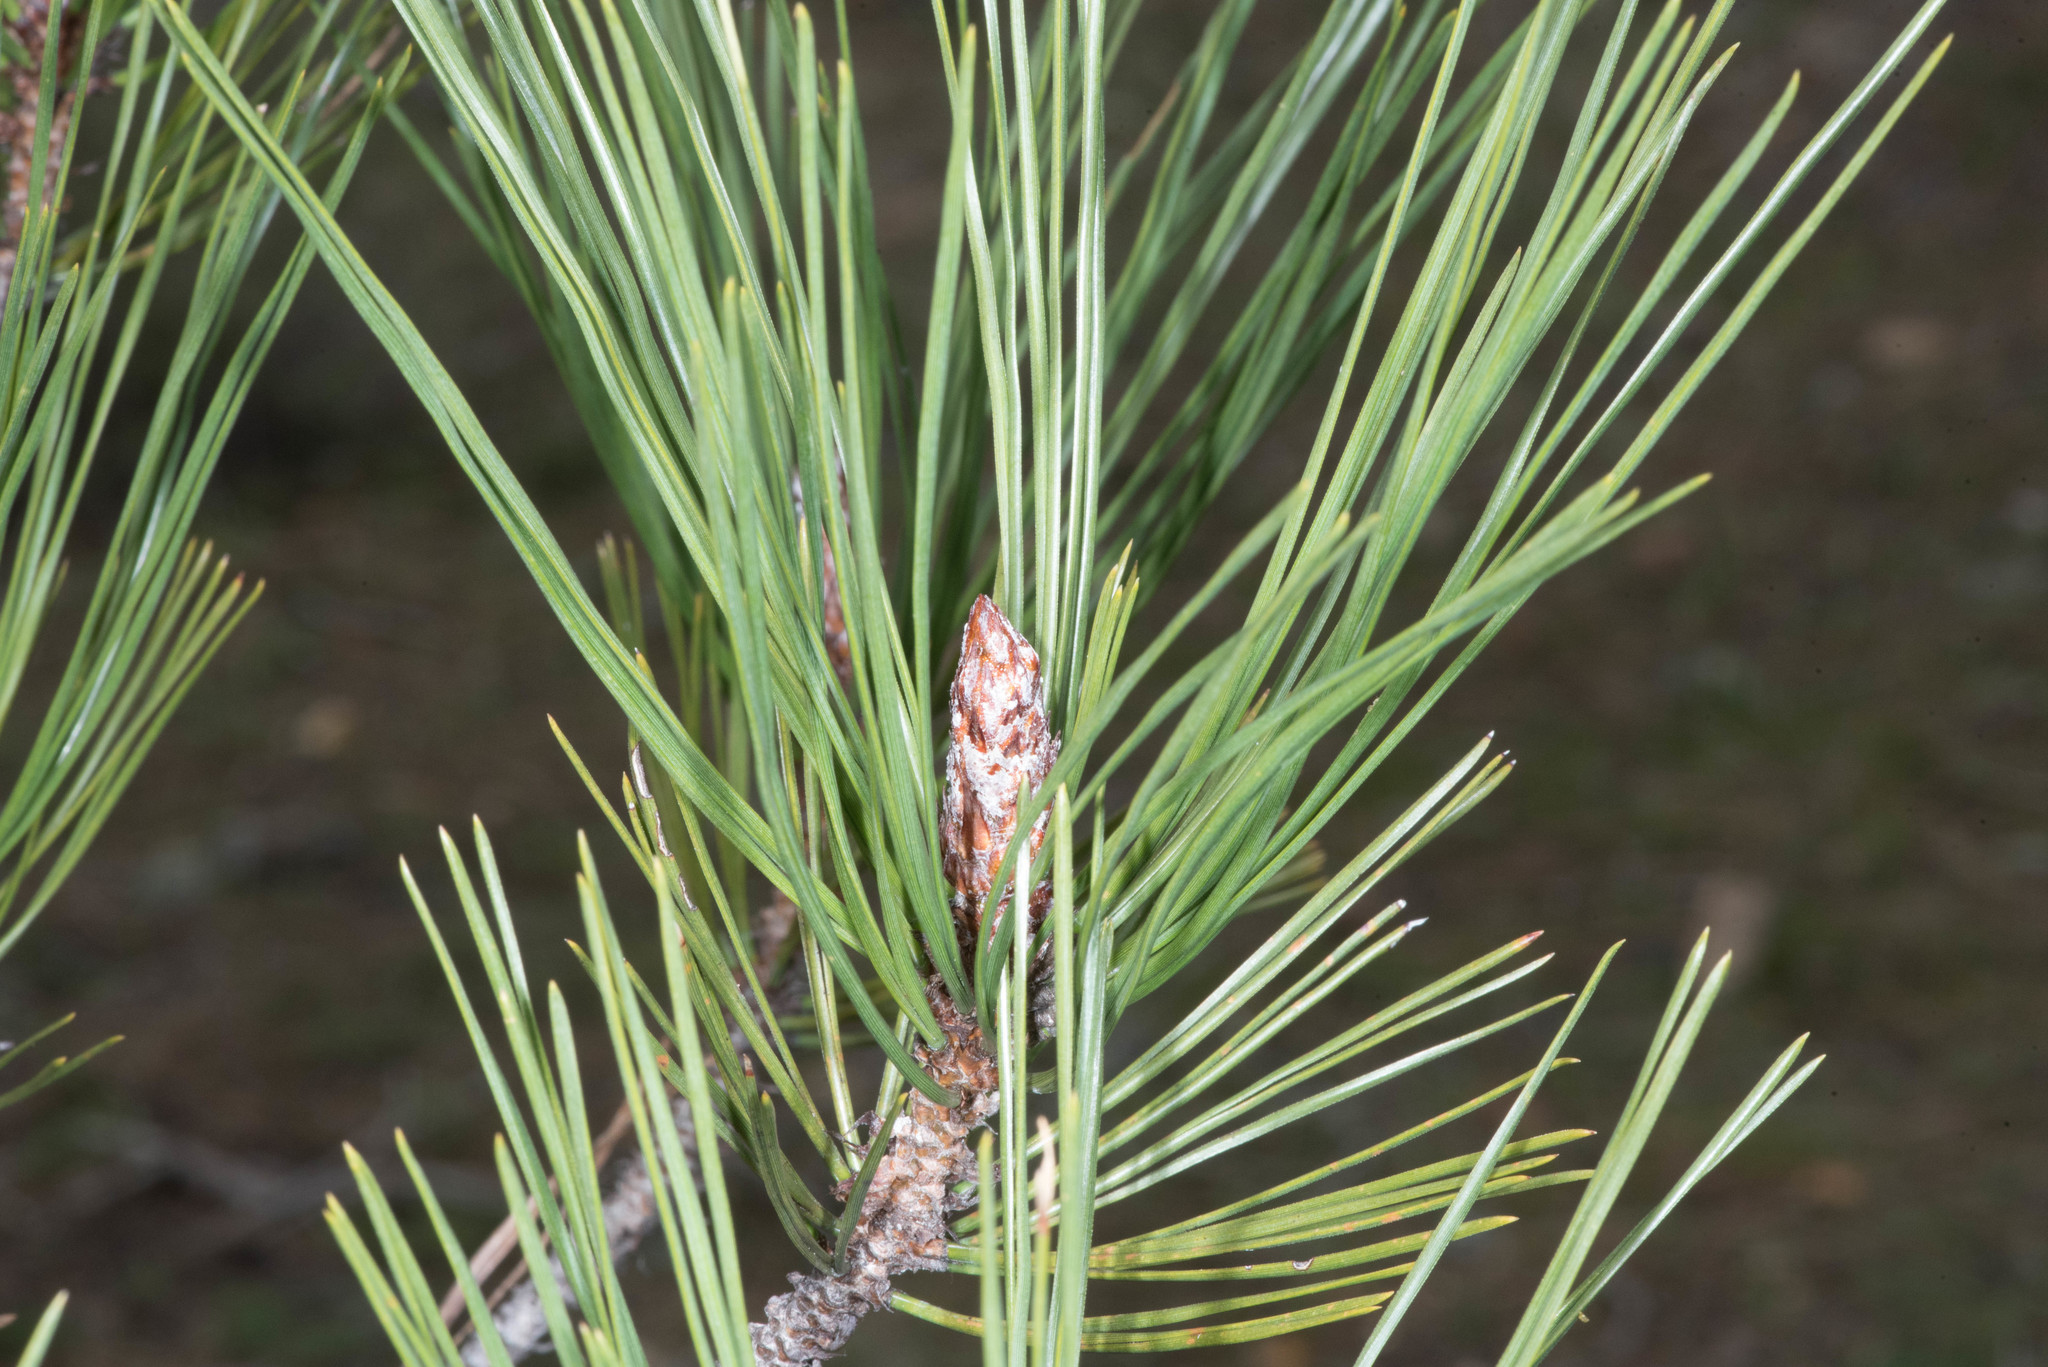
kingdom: Plantae
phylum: Tracheophyta
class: Pinopsida
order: Pinales
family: Pinaceae
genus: Pinus
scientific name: Pinus attenuata
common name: Knobcone pine
